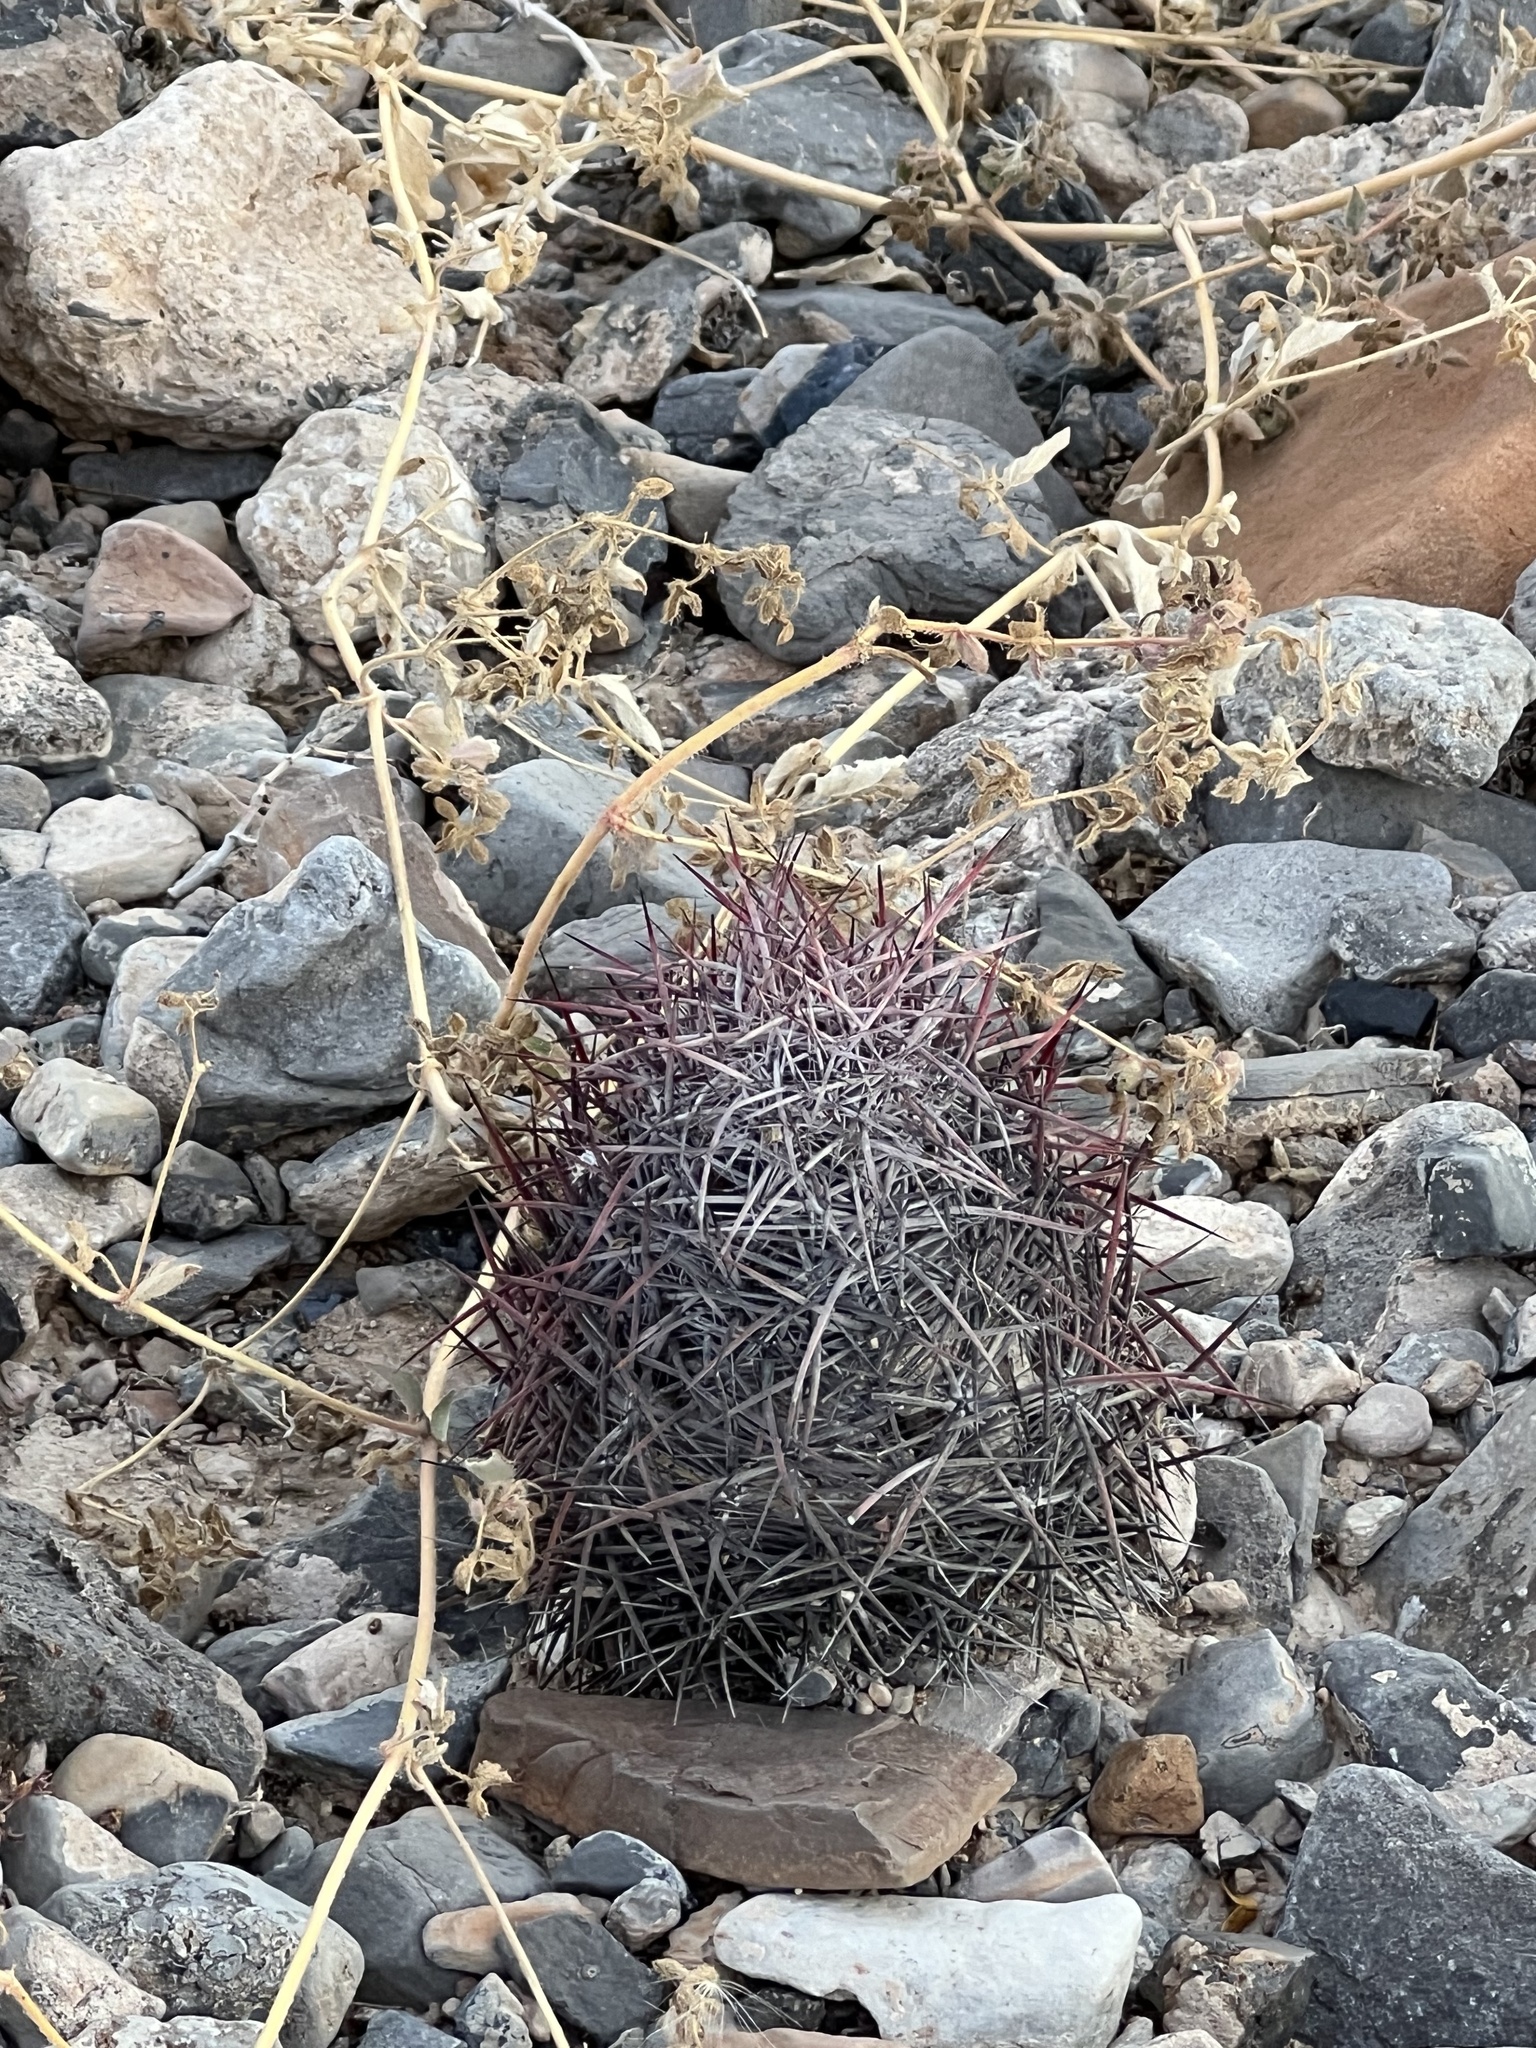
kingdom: Plantae
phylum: Tracheophyta
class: Magnoliopsida
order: Caryophyllales
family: Cactaceae
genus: Sclerocactus
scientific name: Sclerocactus johnsonii
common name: Eight-spine fishhook cactus
